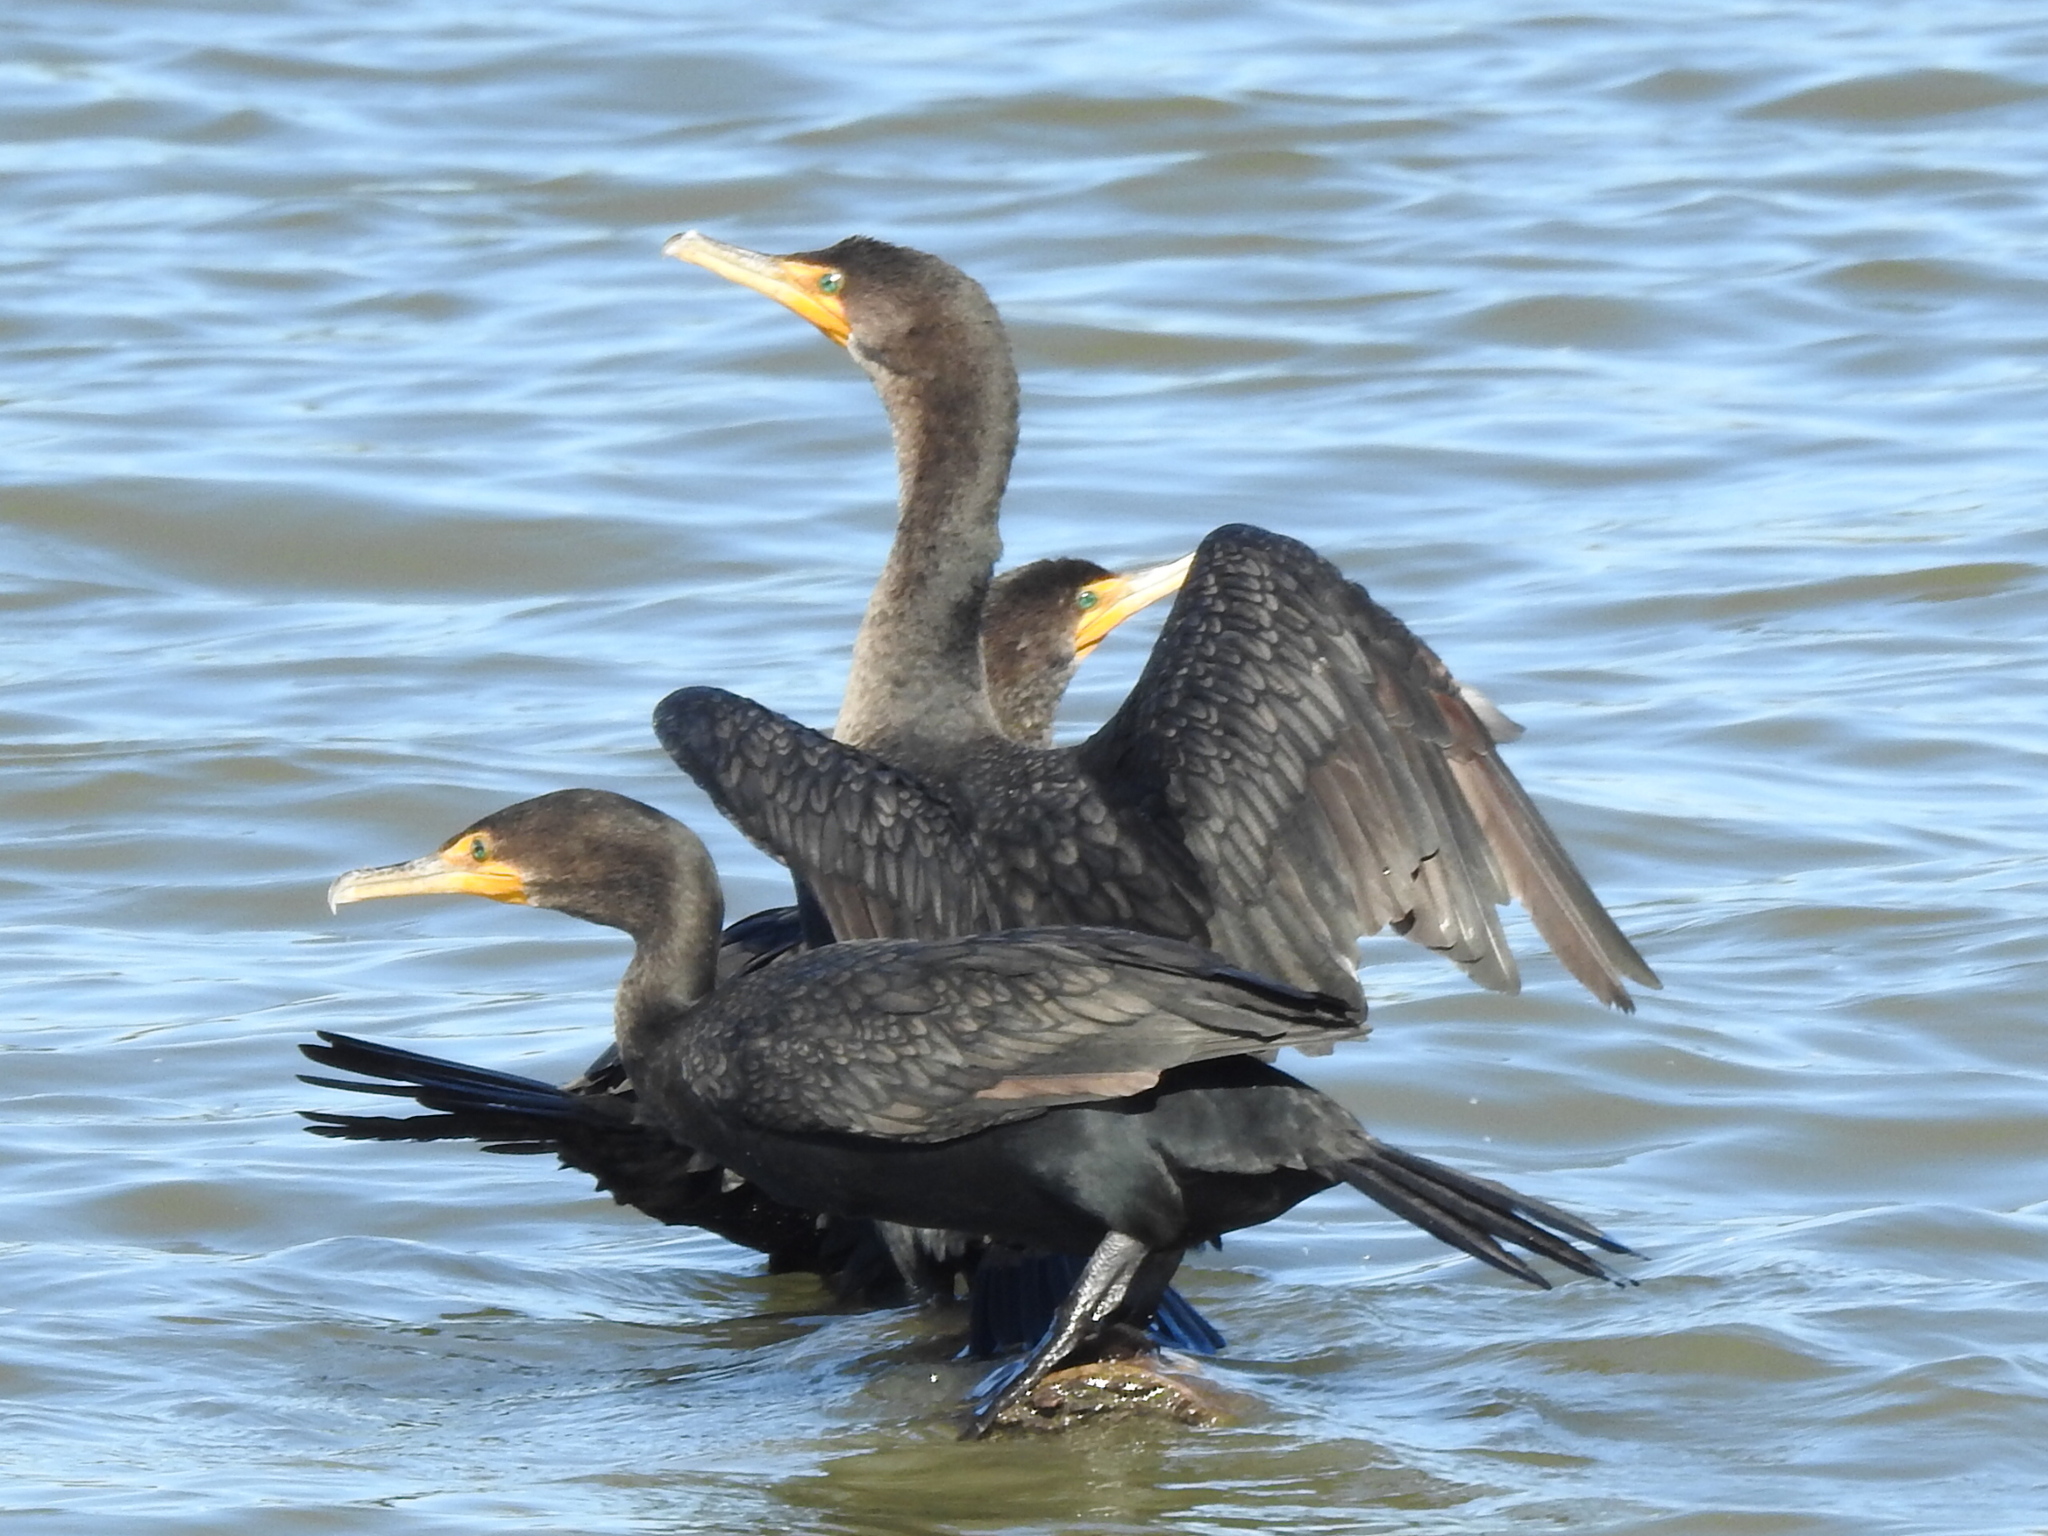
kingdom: Animalia
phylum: Chordata
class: Aves
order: Suliformes
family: Phalacrocoracidae
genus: Phalacrocorax
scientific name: Phalacrocorax auritus
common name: Double-crested cormorant
